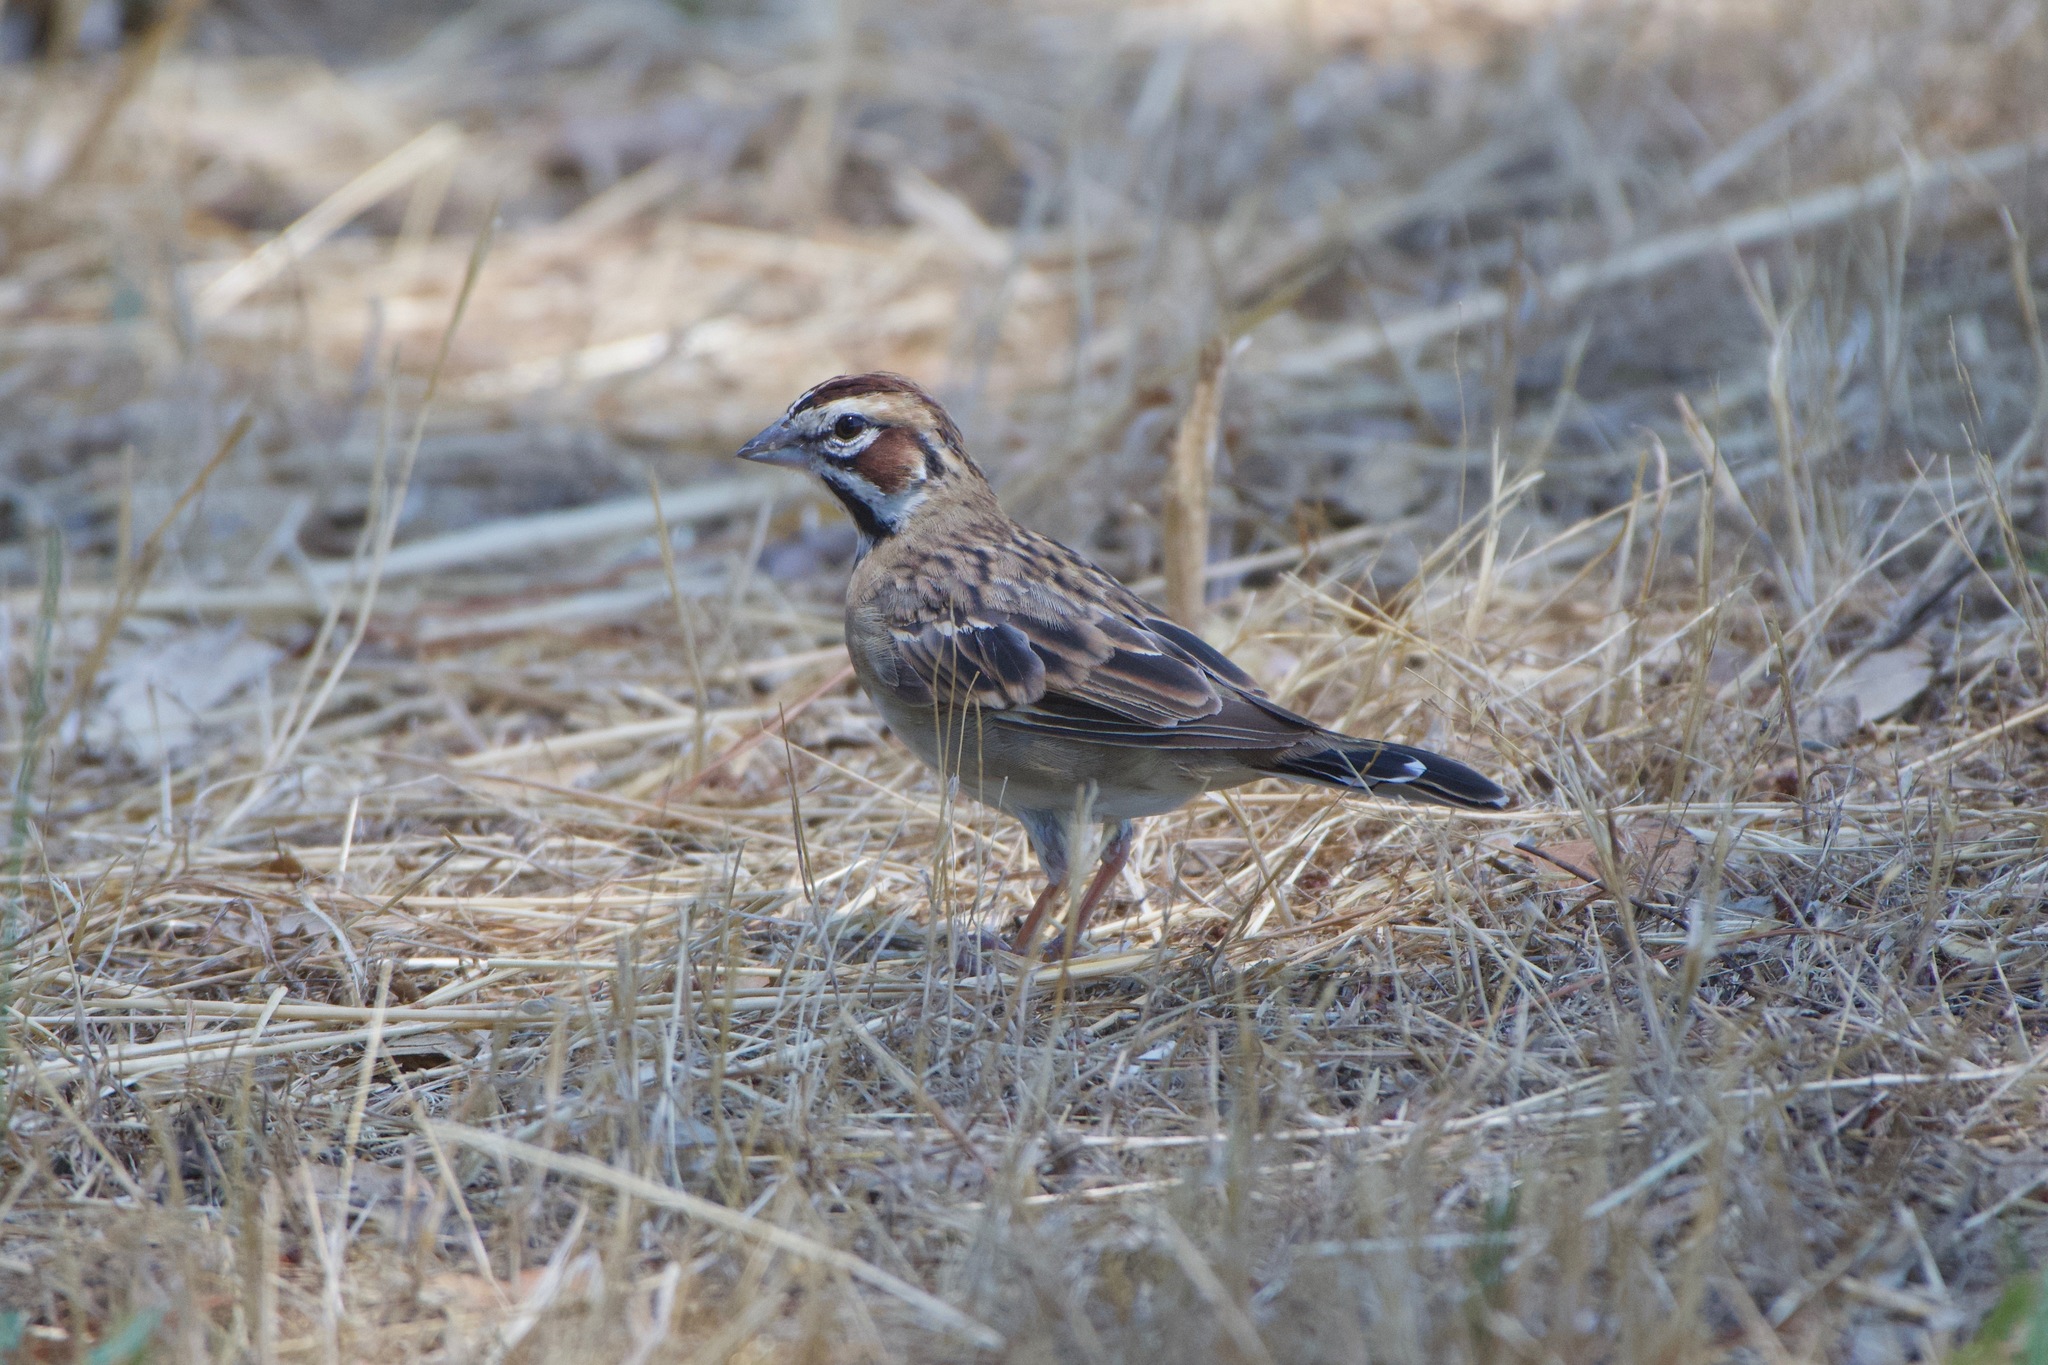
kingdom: Animalia
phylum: Chordata
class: Aves
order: Passeriformes
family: Passerellidae
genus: Chondestes
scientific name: Chondestes grammacus
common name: Lark sparrow
